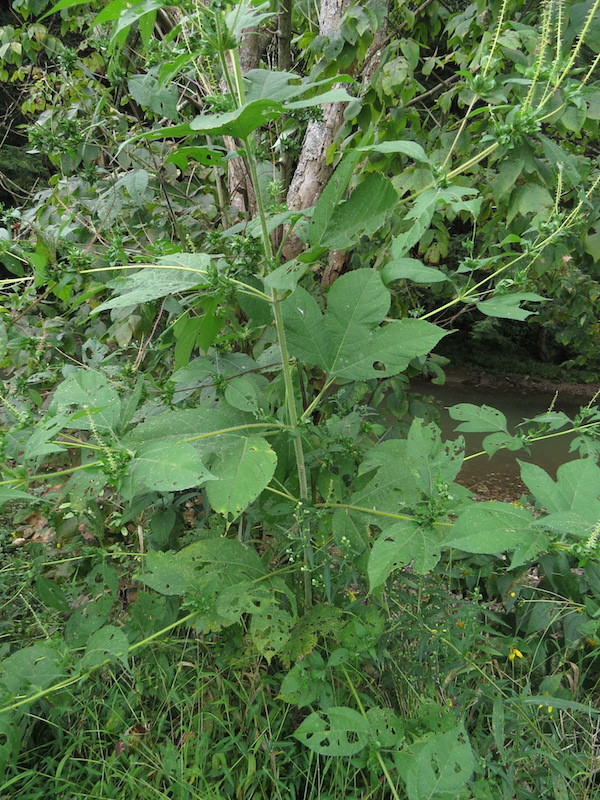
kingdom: Plantae
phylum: Tracheophyta
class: Magnoliopsida
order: Asterales
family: Asteraceae
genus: Ambrosia
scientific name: Ambrosia trifida
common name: Giant ragweed
